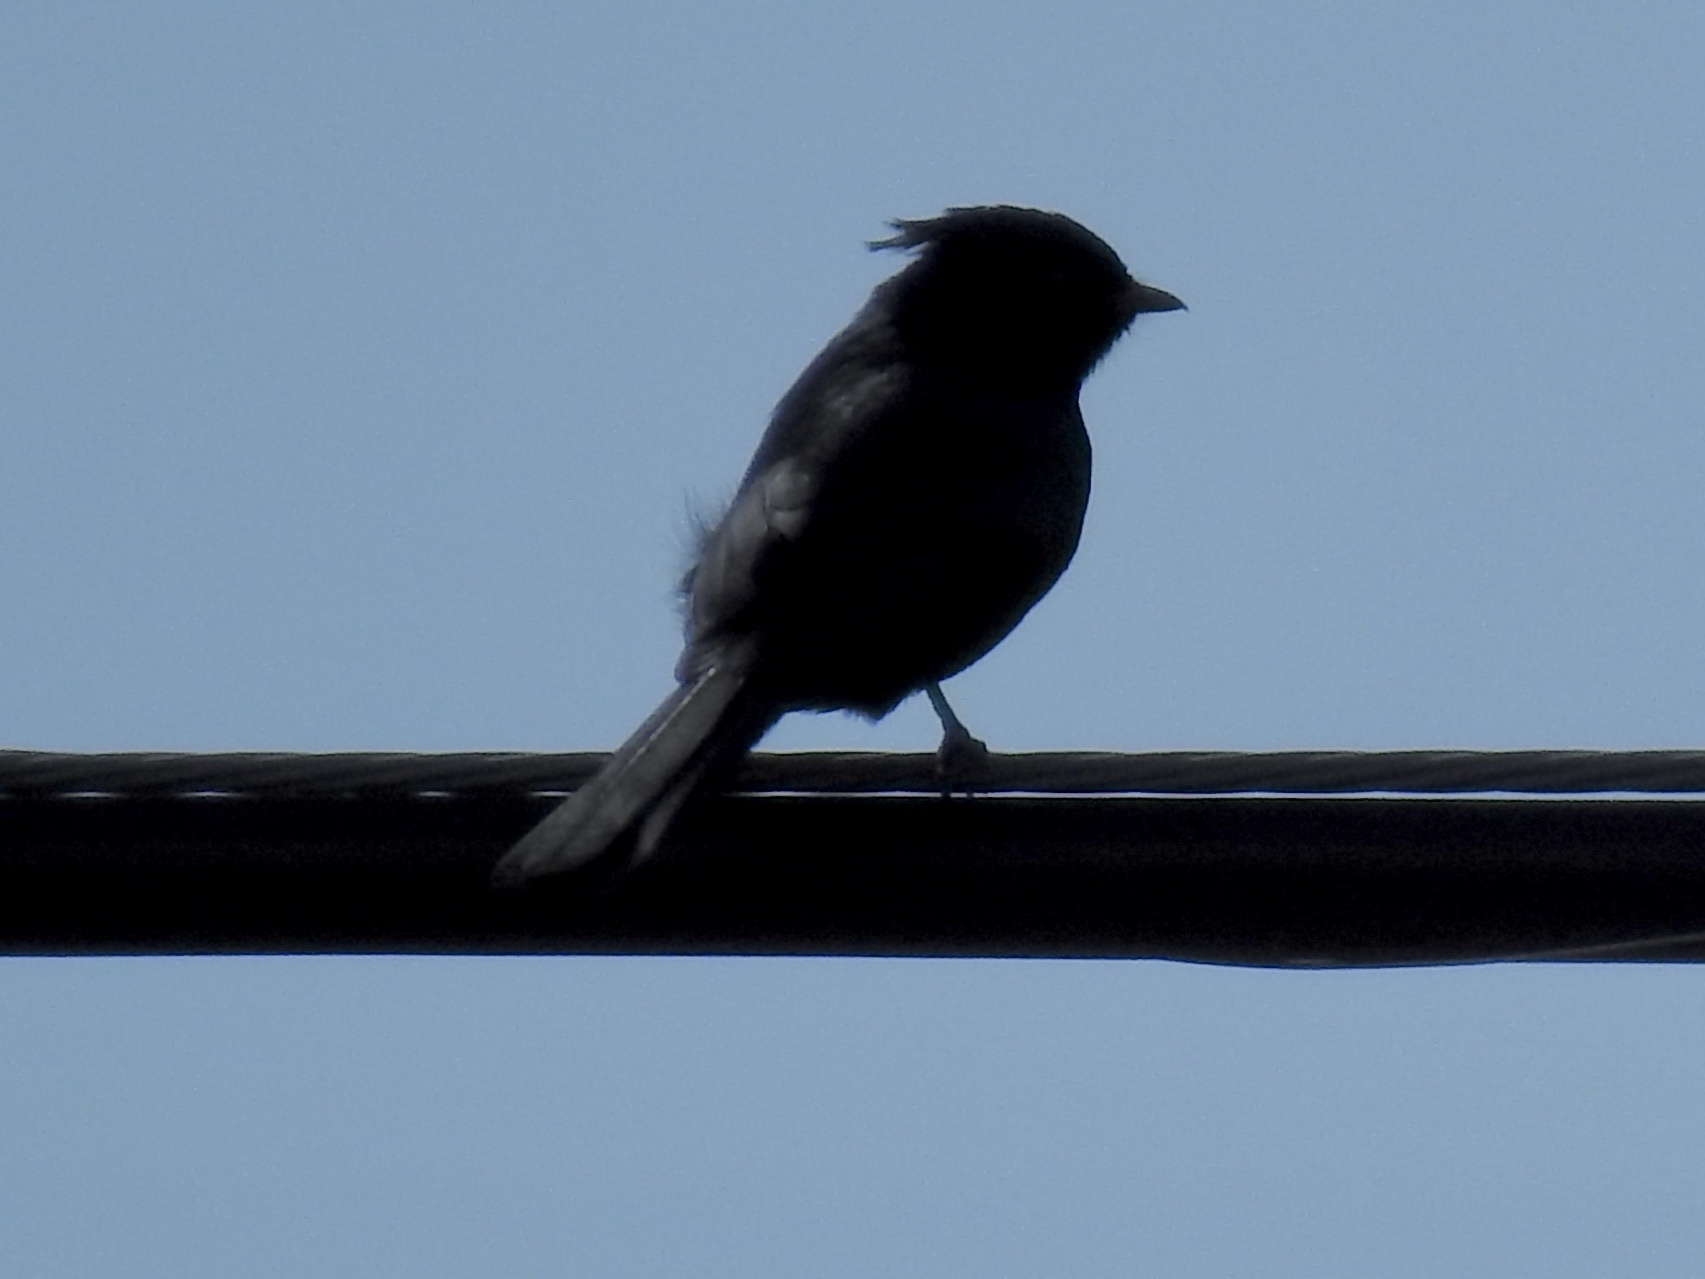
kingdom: Animalia
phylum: Chordata
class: Aves
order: Passeriformes
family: Ptilogonatidae
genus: Phainopepla
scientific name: Phainopepla nitens
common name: Phainopepla
